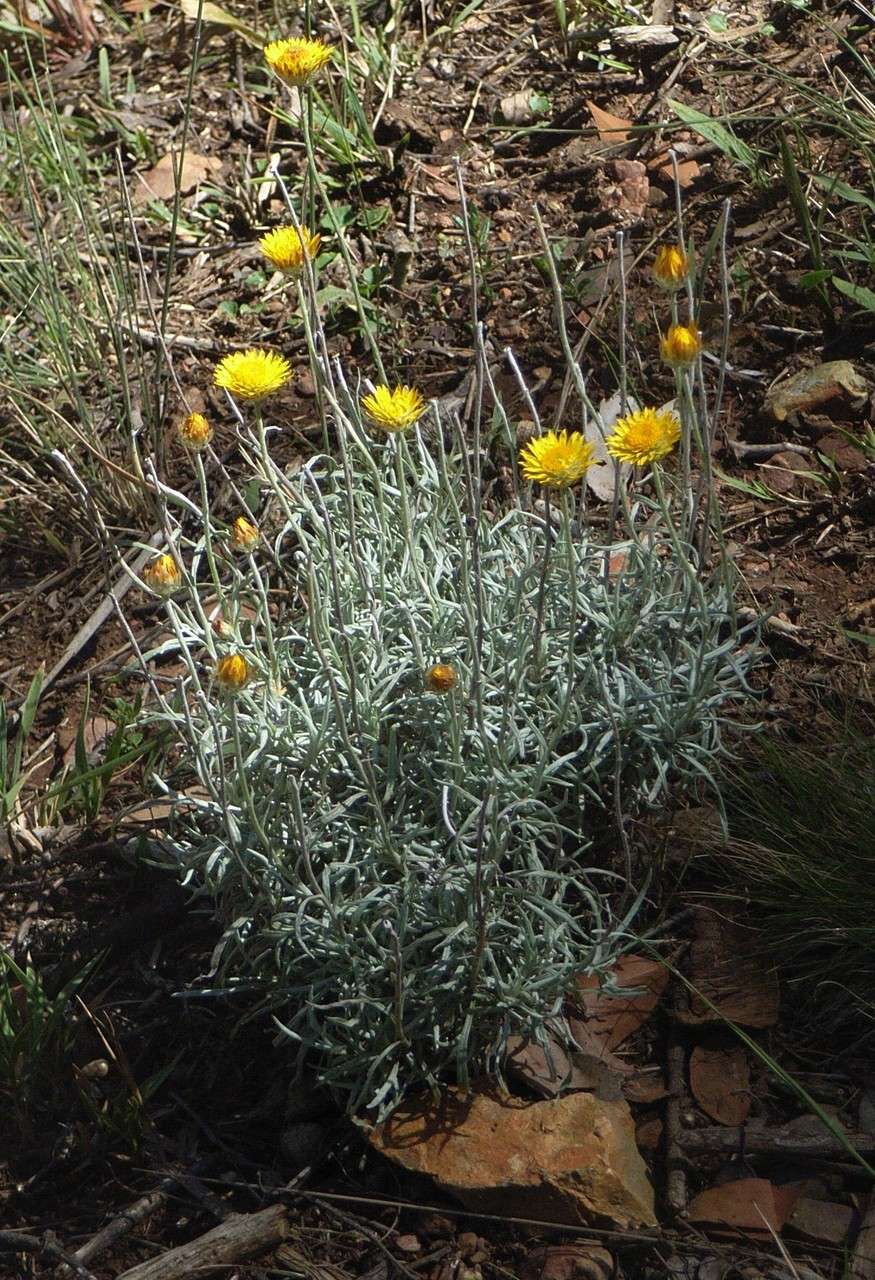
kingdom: Plantae
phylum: Tracheophyta
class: Magnoliopsida
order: Asterales
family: Asteraceae
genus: Leucochrysum
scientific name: Leucochrysum albicans
